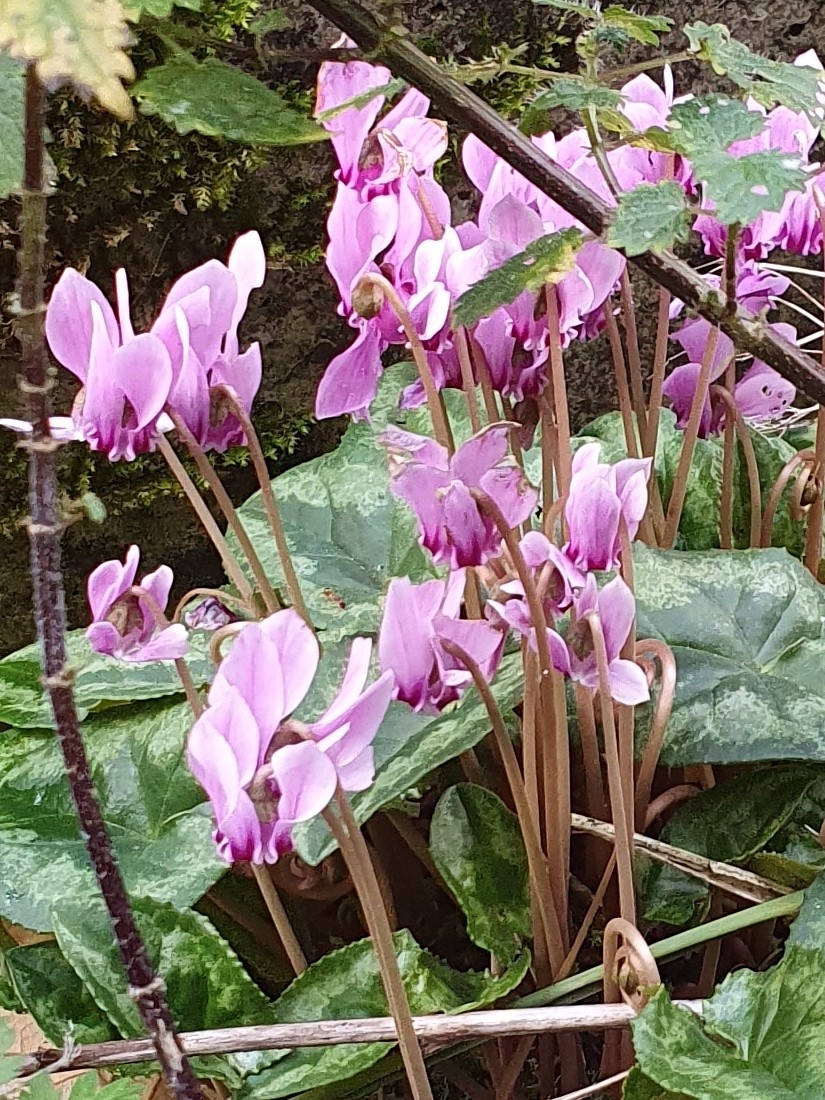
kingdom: Plantae
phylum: Tracheophyta
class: Magnoliopsida
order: Ericales
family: Primulaceae
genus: Cyclamen
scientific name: Cyclamen hederifolium
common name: Sowbread
